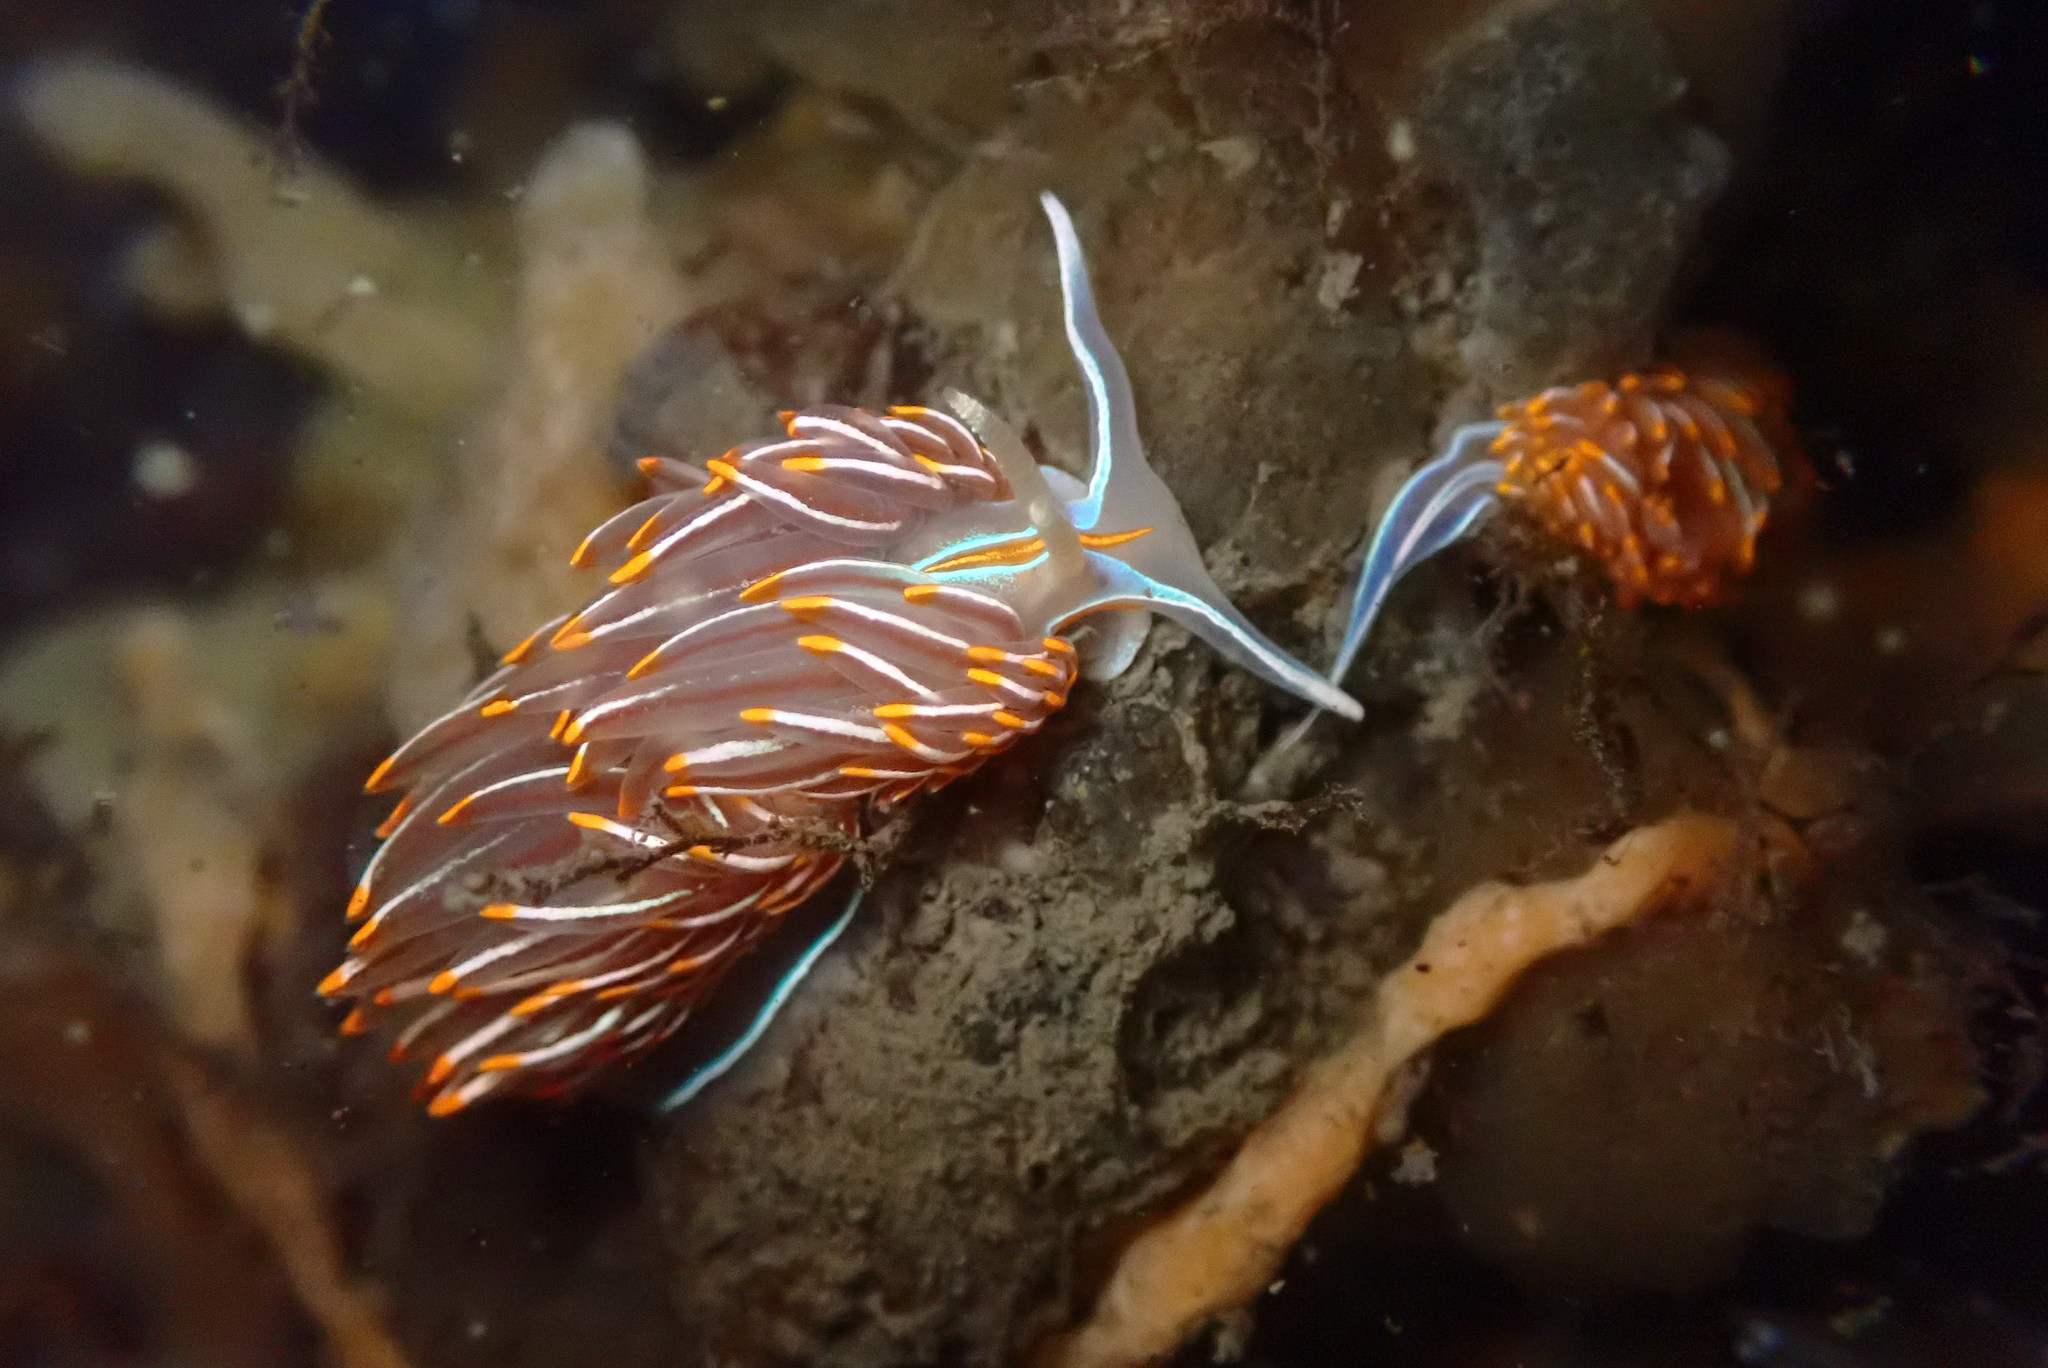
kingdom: Animalia
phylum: Mollusca
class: Gastropoda
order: Nudibranchia
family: Myrrhinidae
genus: Hermissenda
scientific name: Hermissenda crassicornis
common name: Hermissenda
